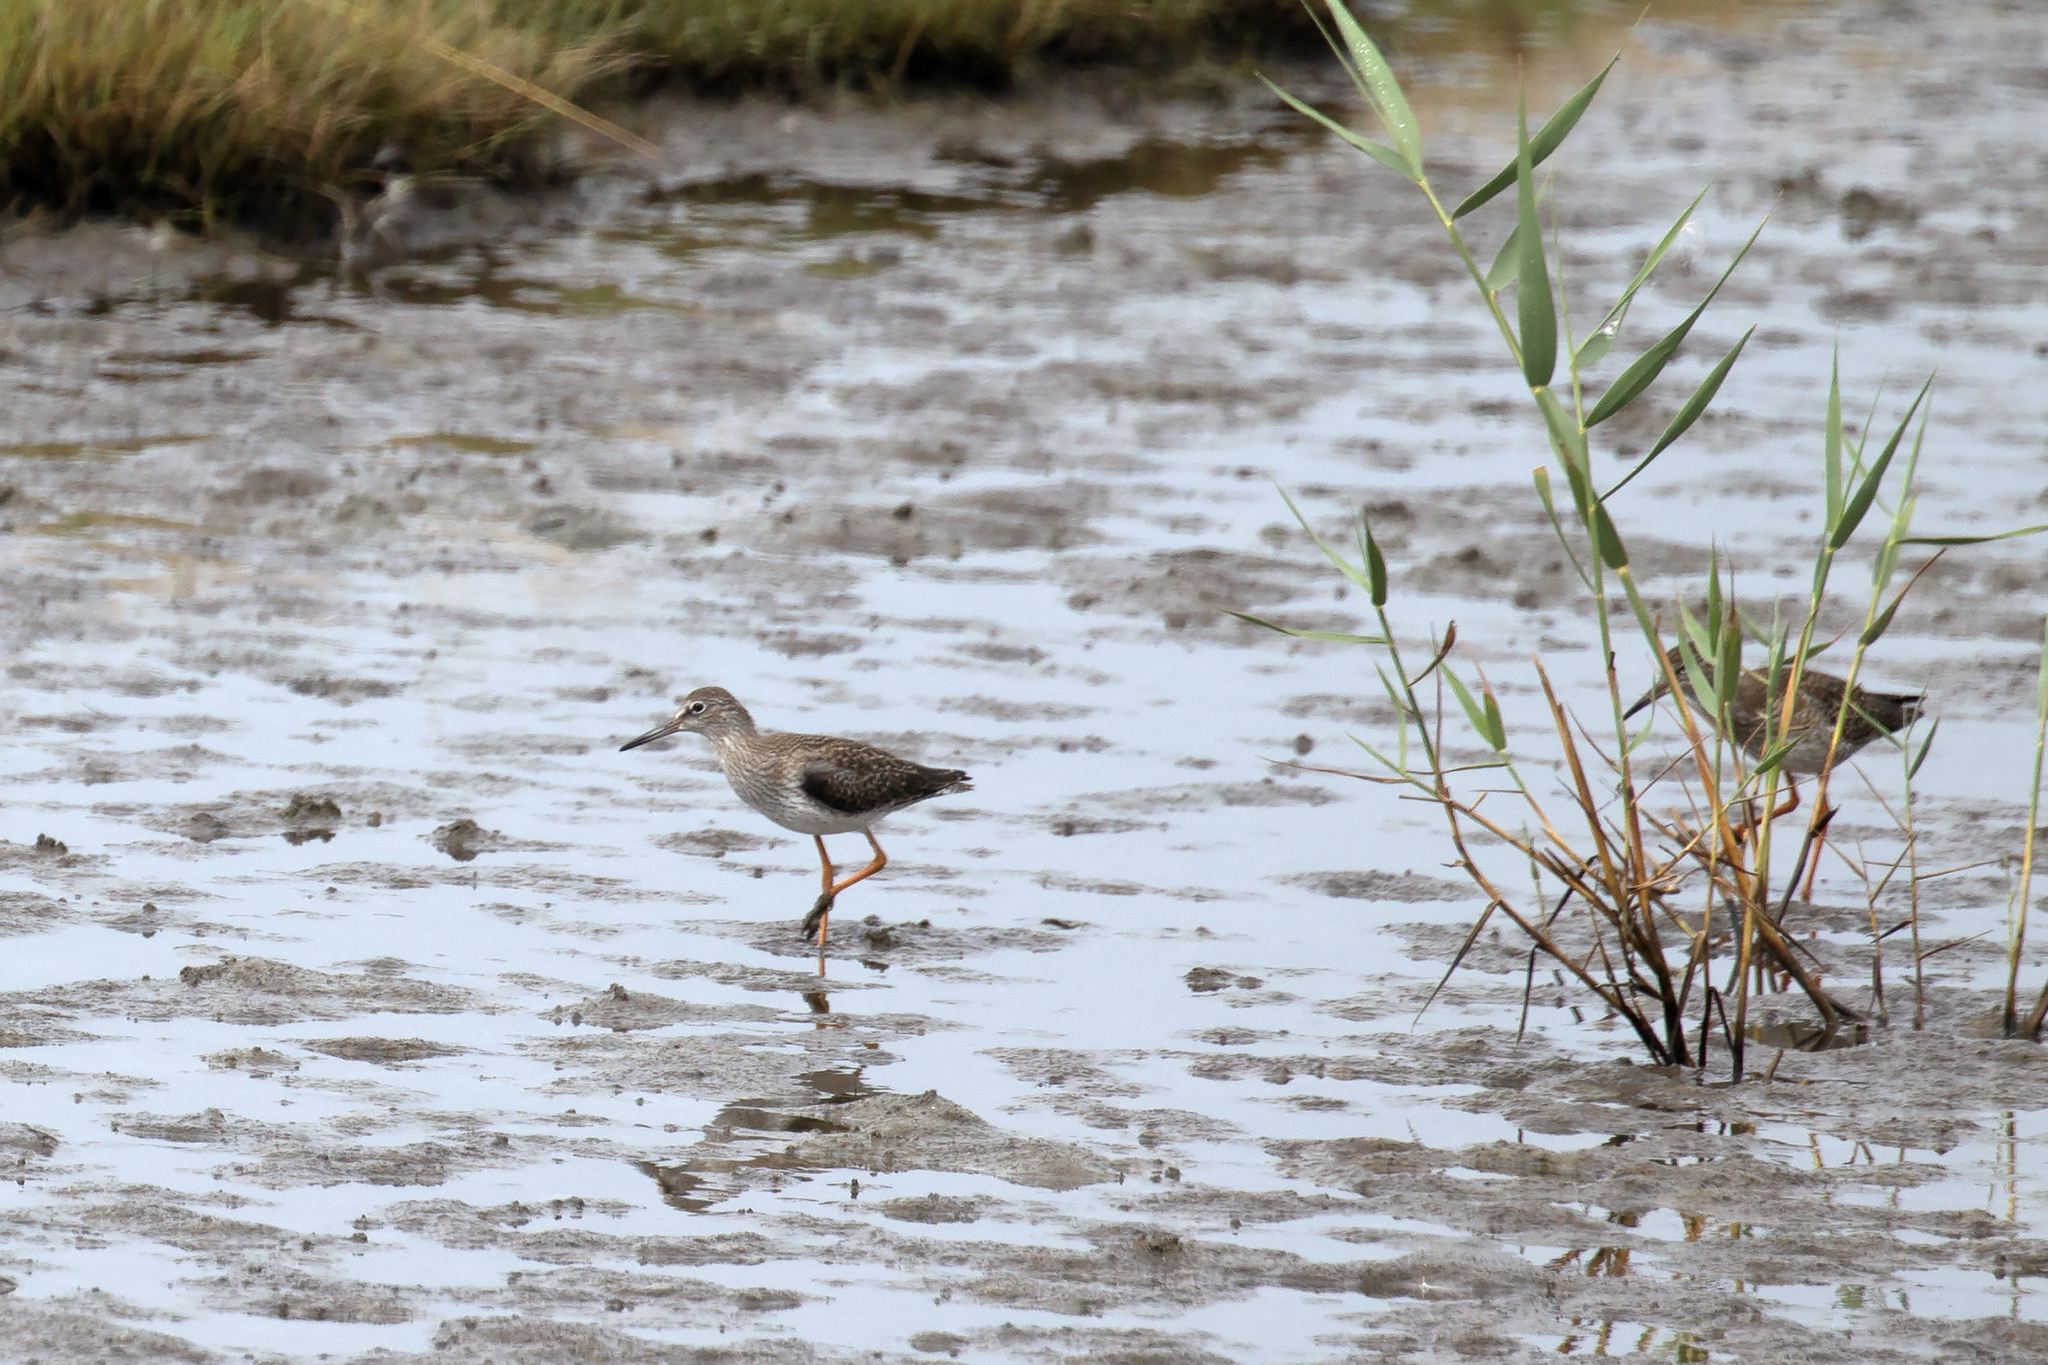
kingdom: Animalia
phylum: Chordata
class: Aves
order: Charadriiformes
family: Scolopacidae
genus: Tringa
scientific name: Tringa totanus
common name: Common redshank
